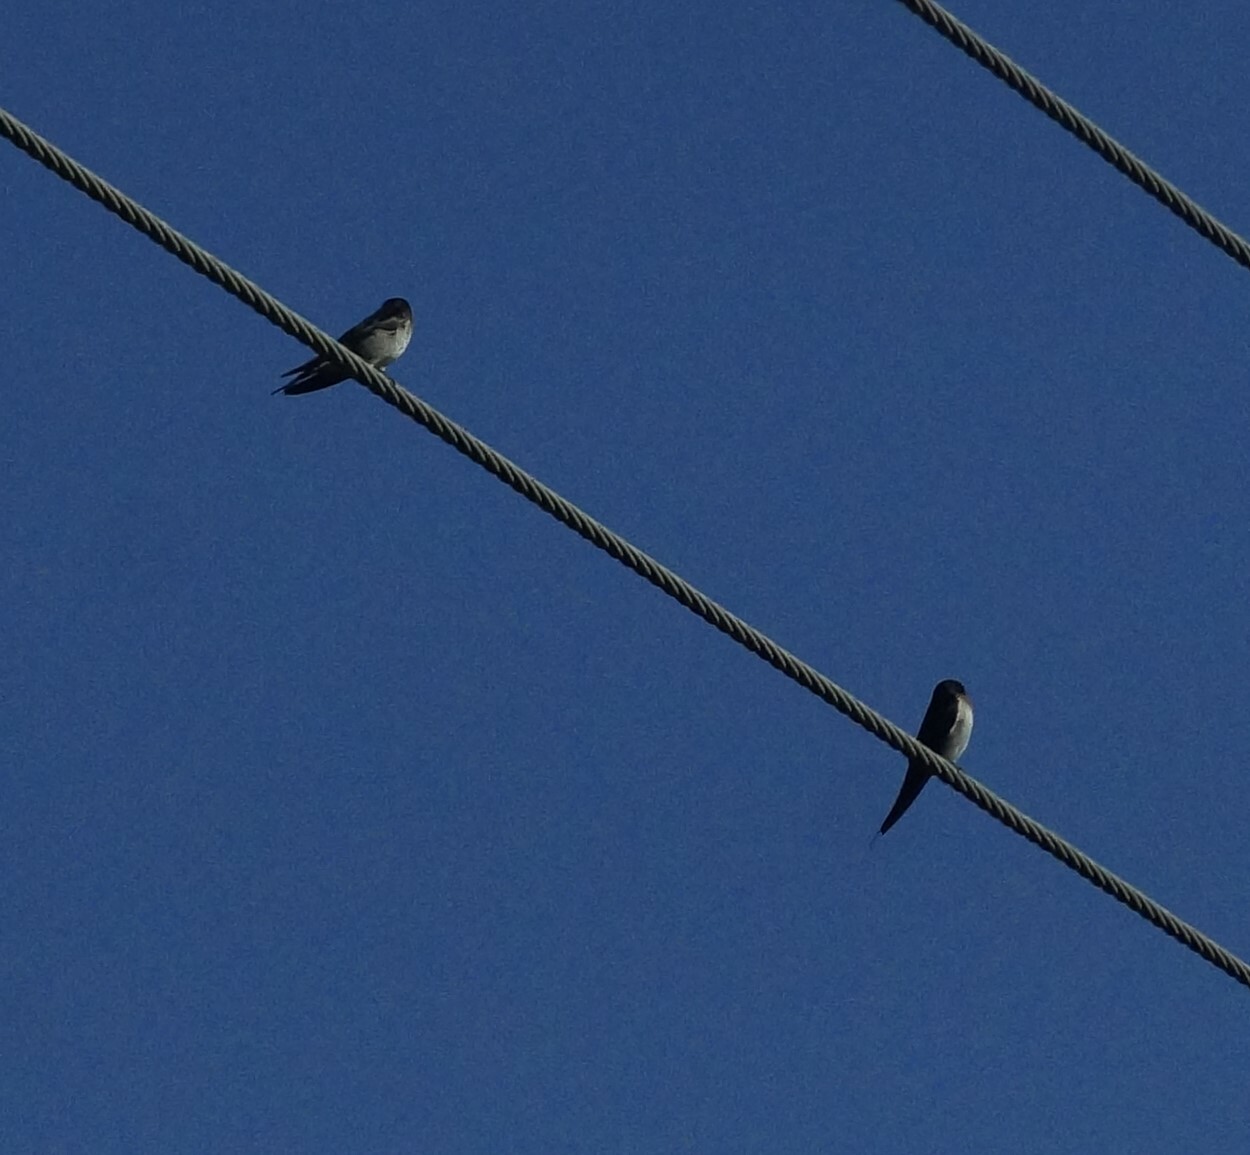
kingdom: Animalia
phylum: Chordata
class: Aves
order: Passeriformes
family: Hirundinidae
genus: Hirundo
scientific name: Hirundo neoxena
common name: Welcome swallow
